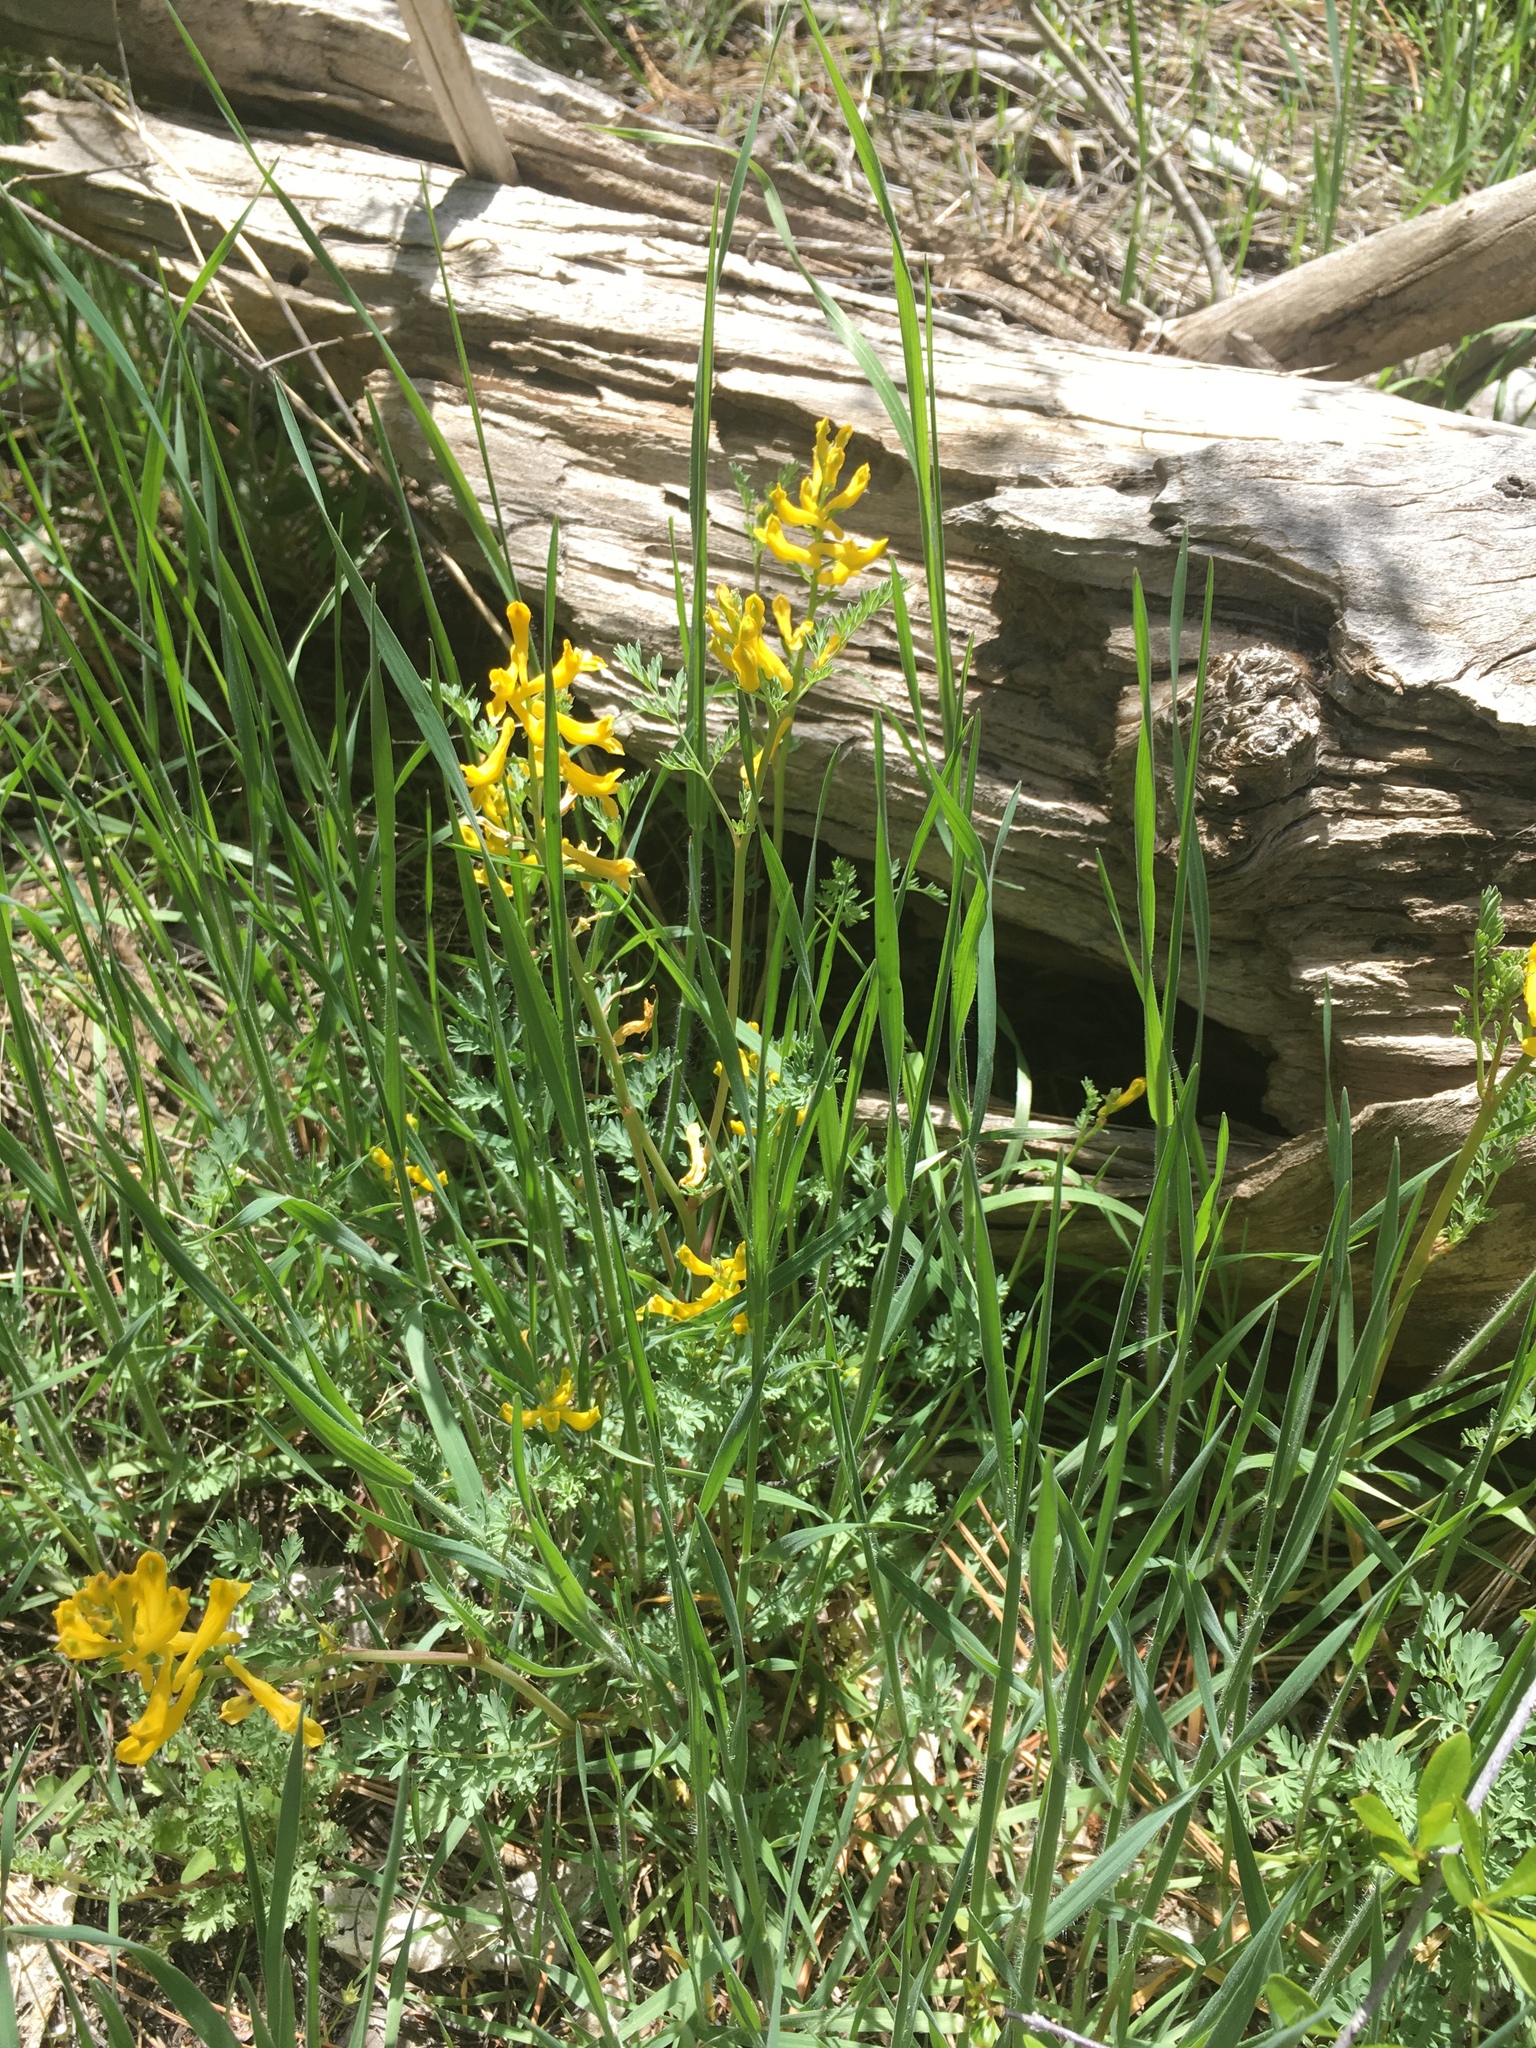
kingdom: Plantae
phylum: Tracheophyta
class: Magnoliopsida
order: Ranunculales
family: Papaveraceae
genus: Corydalis
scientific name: Corydalis aurea
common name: Golden corydalis
